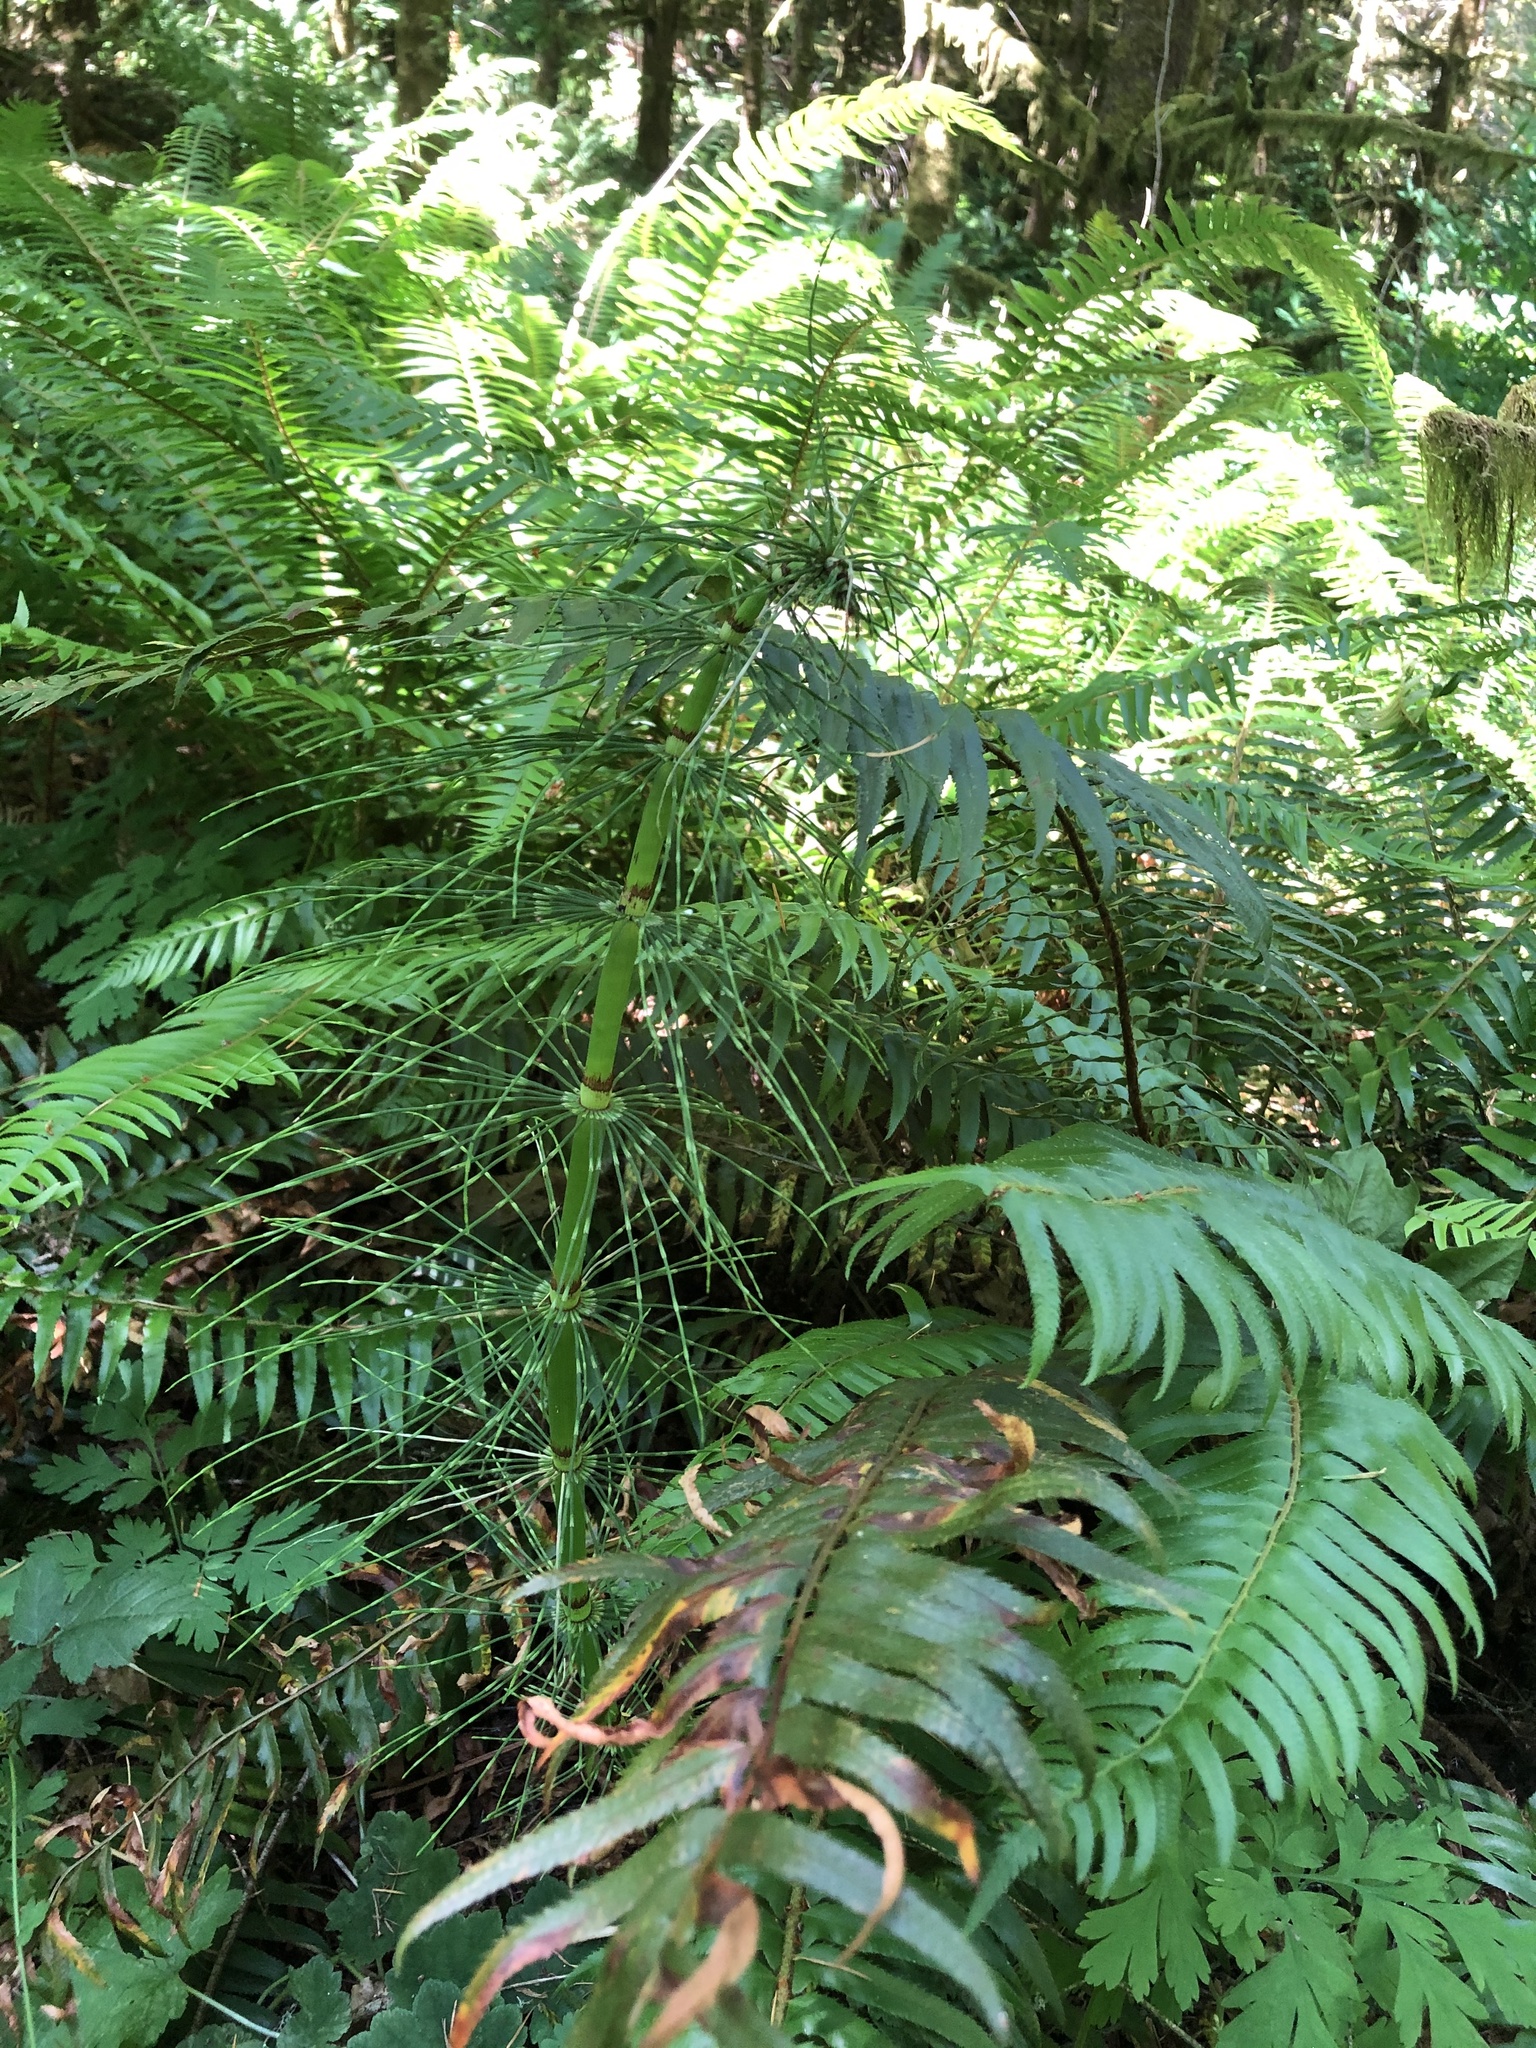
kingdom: Plantae
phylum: Tracheophyta
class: Polypodiopsida
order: Equisetales
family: Equisetaceae
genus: Equisetum
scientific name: Equisetum braunii
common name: Braun's horsetail
